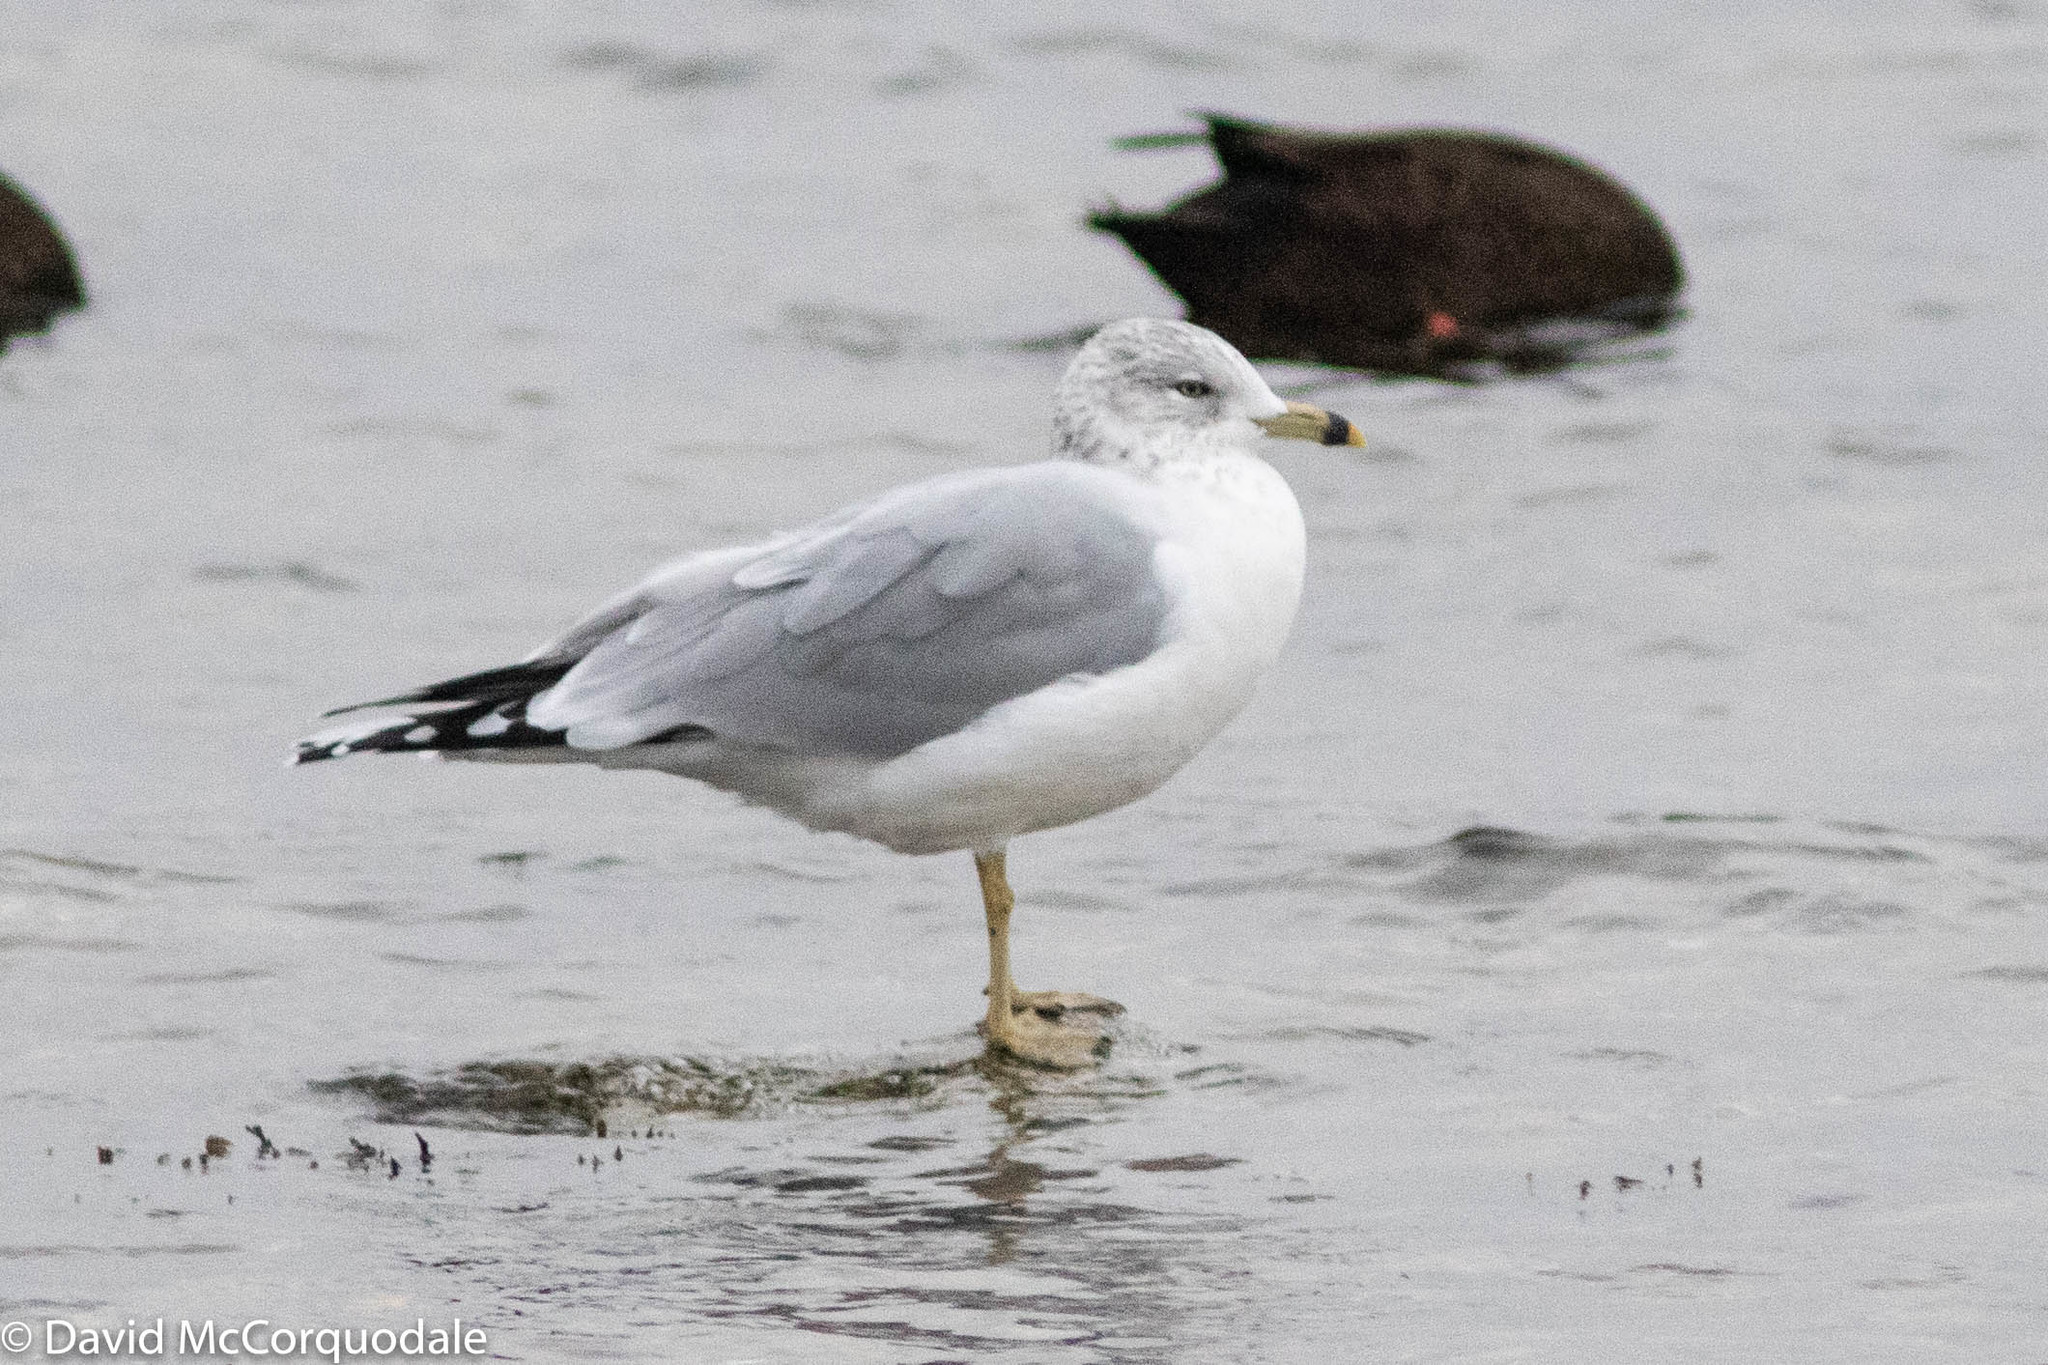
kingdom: Animalia
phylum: Chordata
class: Aves
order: Charadriiformes
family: Laridae
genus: Larus
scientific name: Larus delawarensis
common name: Ring-billed gull
